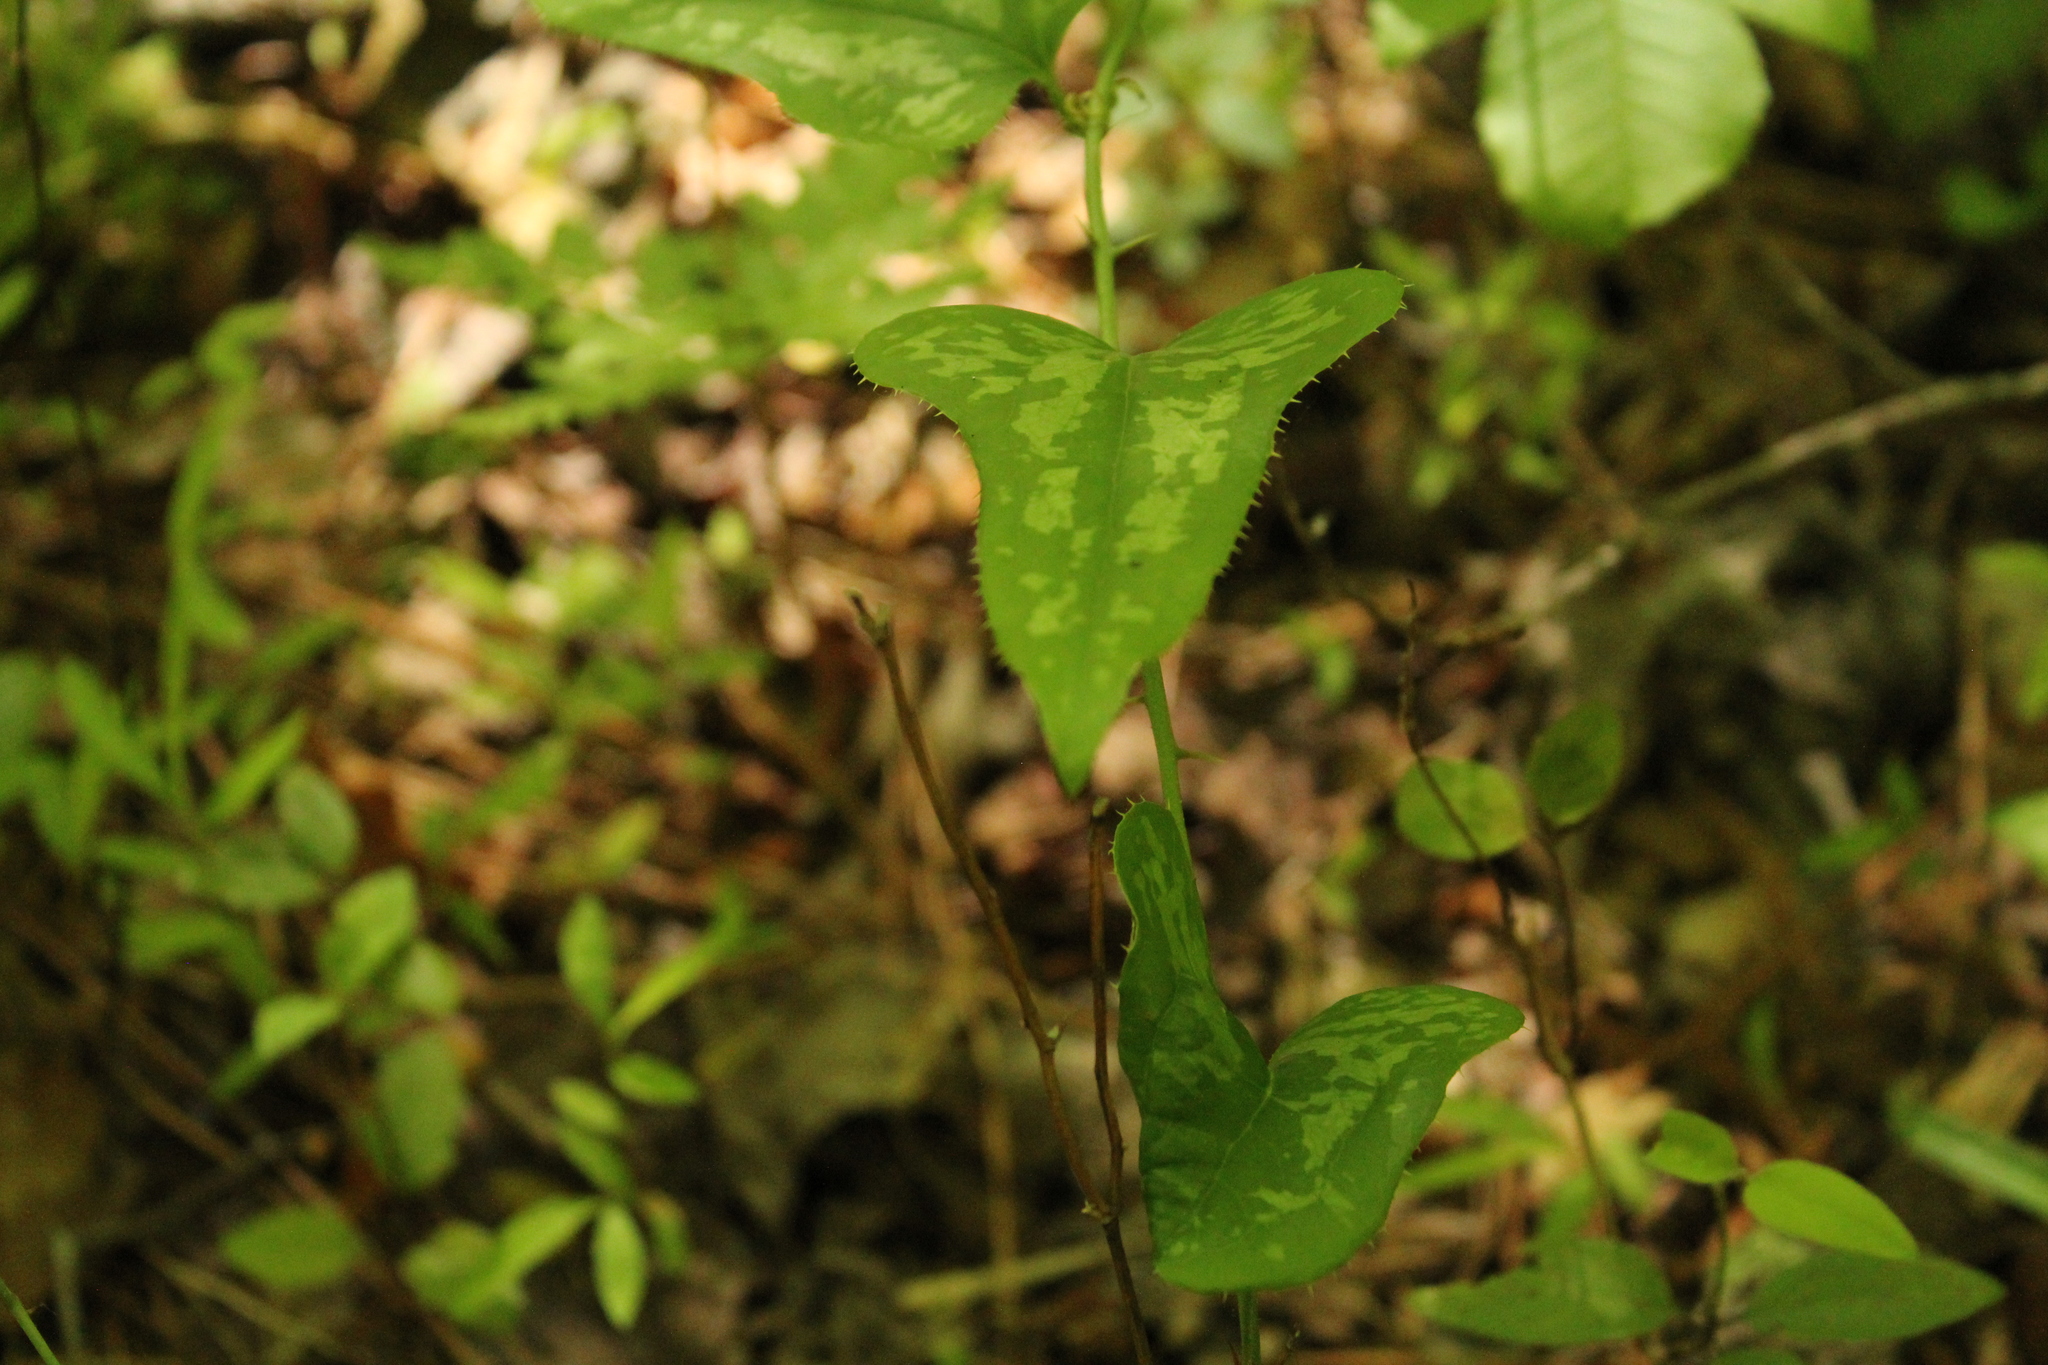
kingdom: Plantae
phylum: Tracheophyta
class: Liliopsida
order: Liliales
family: Smilacaceae
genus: Smilax
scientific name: Smilax bona-nox
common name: Catbrier
